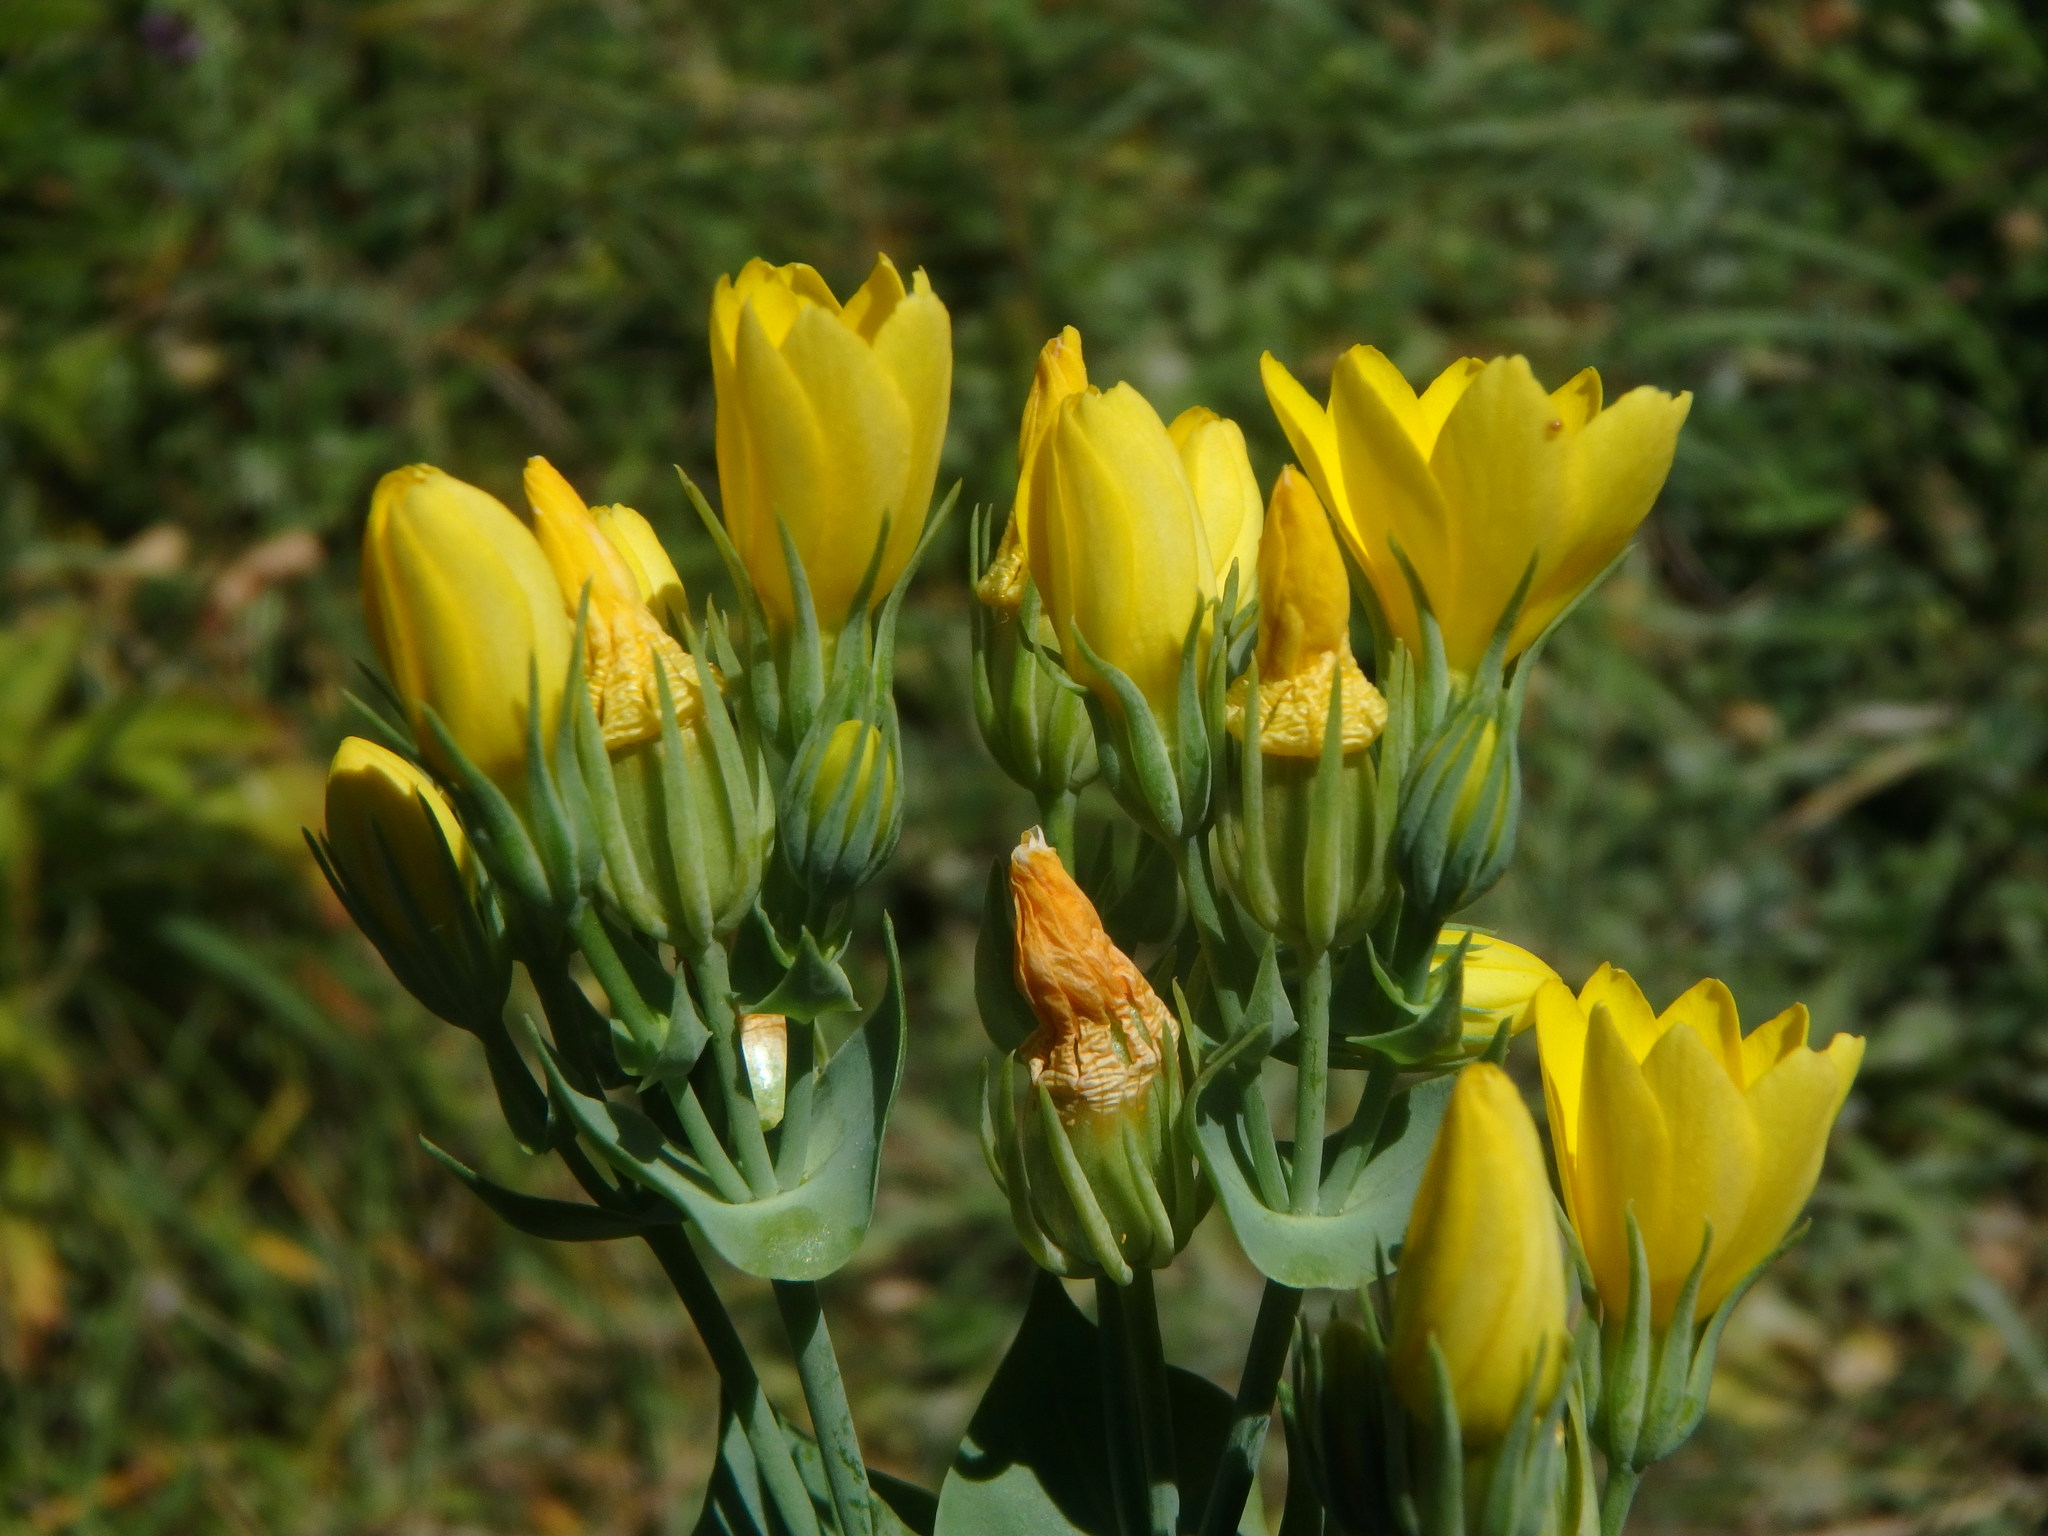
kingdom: Plantae
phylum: Tracheophyta
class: Magnoliopsida
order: Gentianales
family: Gentianaceae
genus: Blackstonia
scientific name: Blackstonia perfoliata
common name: Yellow-wort
